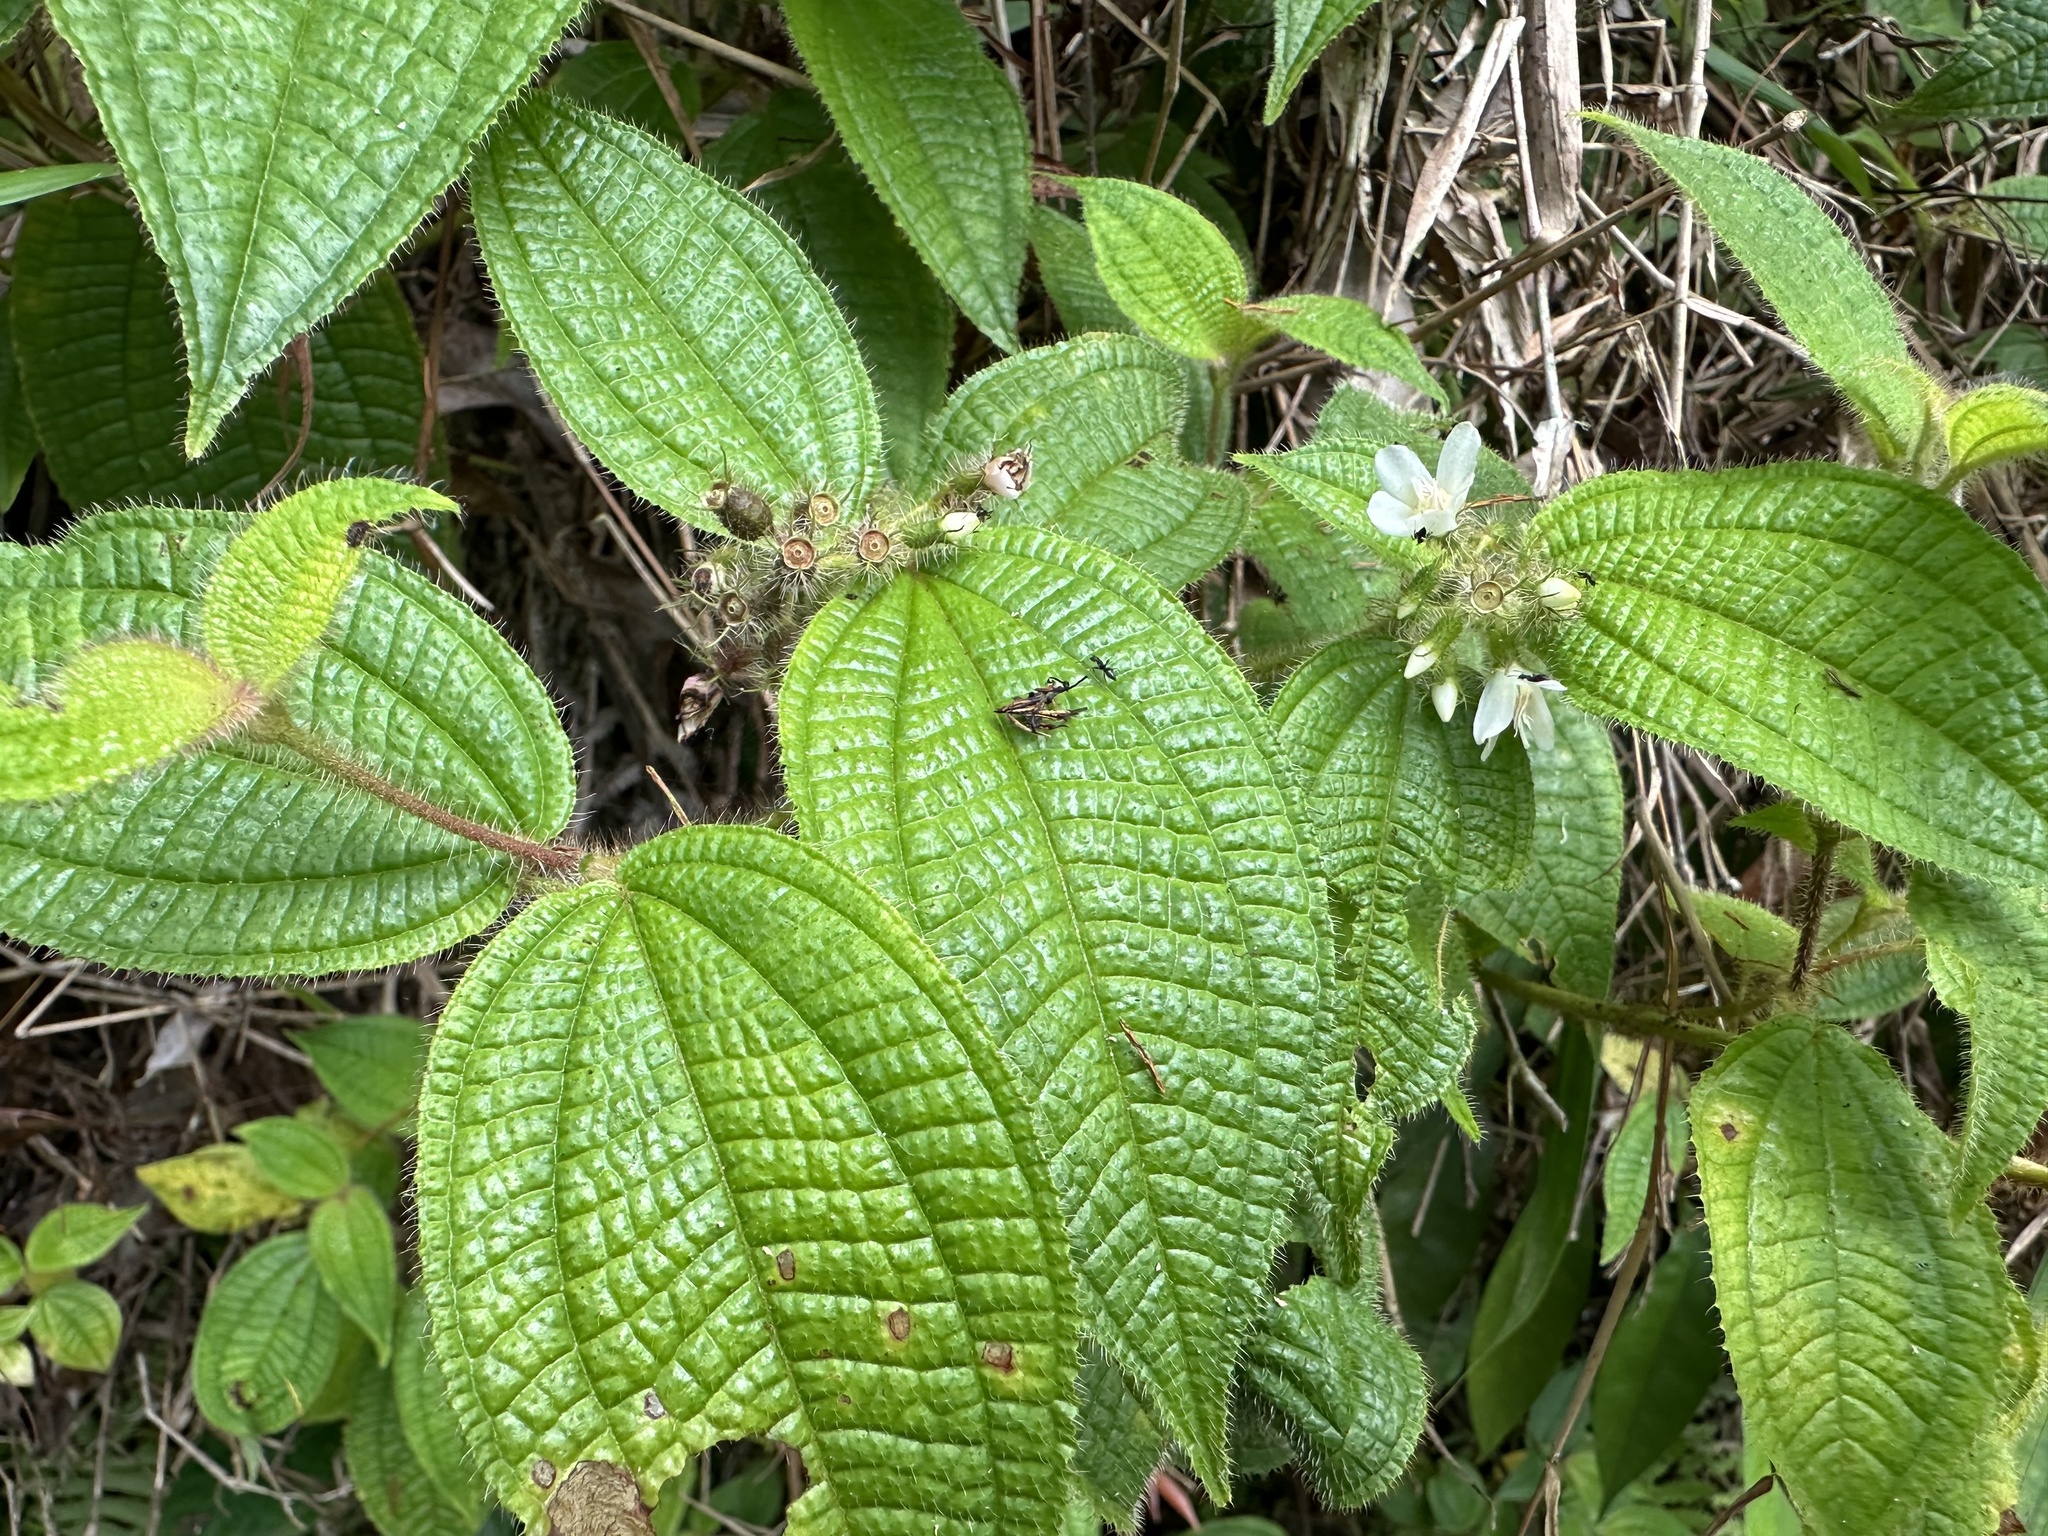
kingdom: Plantae
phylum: Tracheophyta
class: Magnoliopsida
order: Myrtales
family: Melastomataceae
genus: Miconia
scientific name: Miconia crenata
